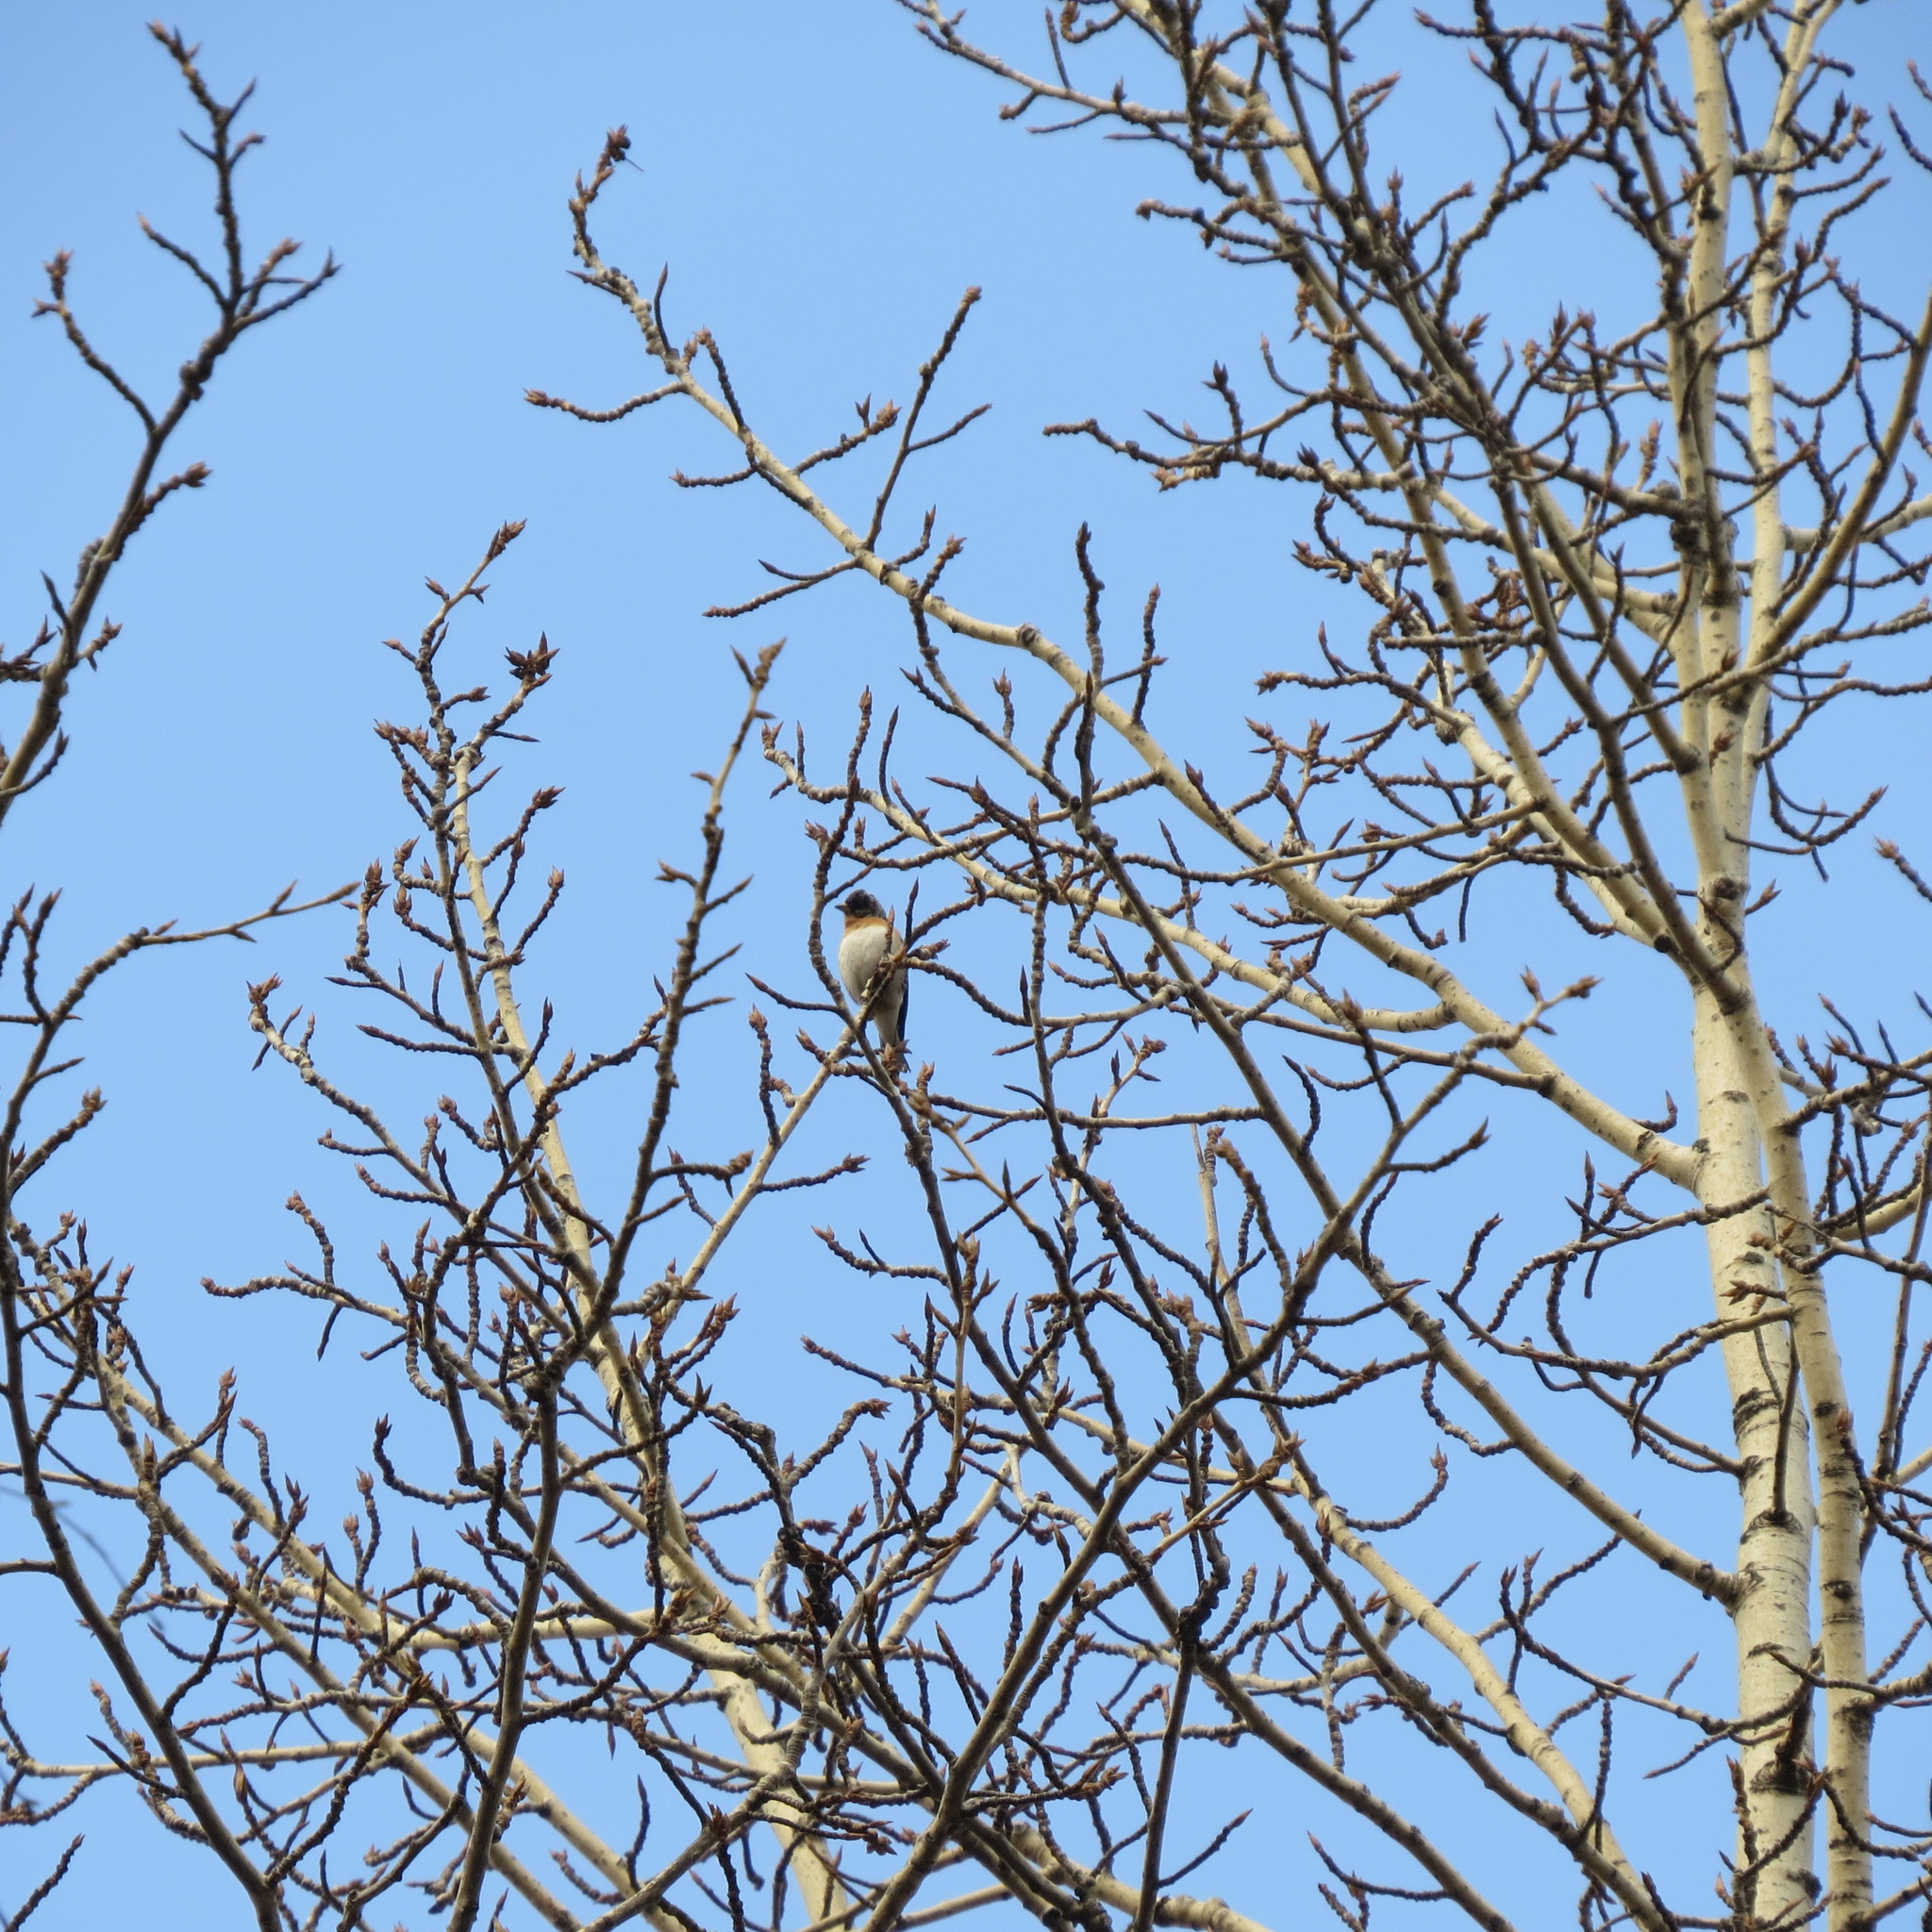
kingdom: Animalia
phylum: Chordata
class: Aves
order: Passeriformes
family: Fringillidae
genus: Fringilla
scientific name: Fringilla montifringilla
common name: Brambling
